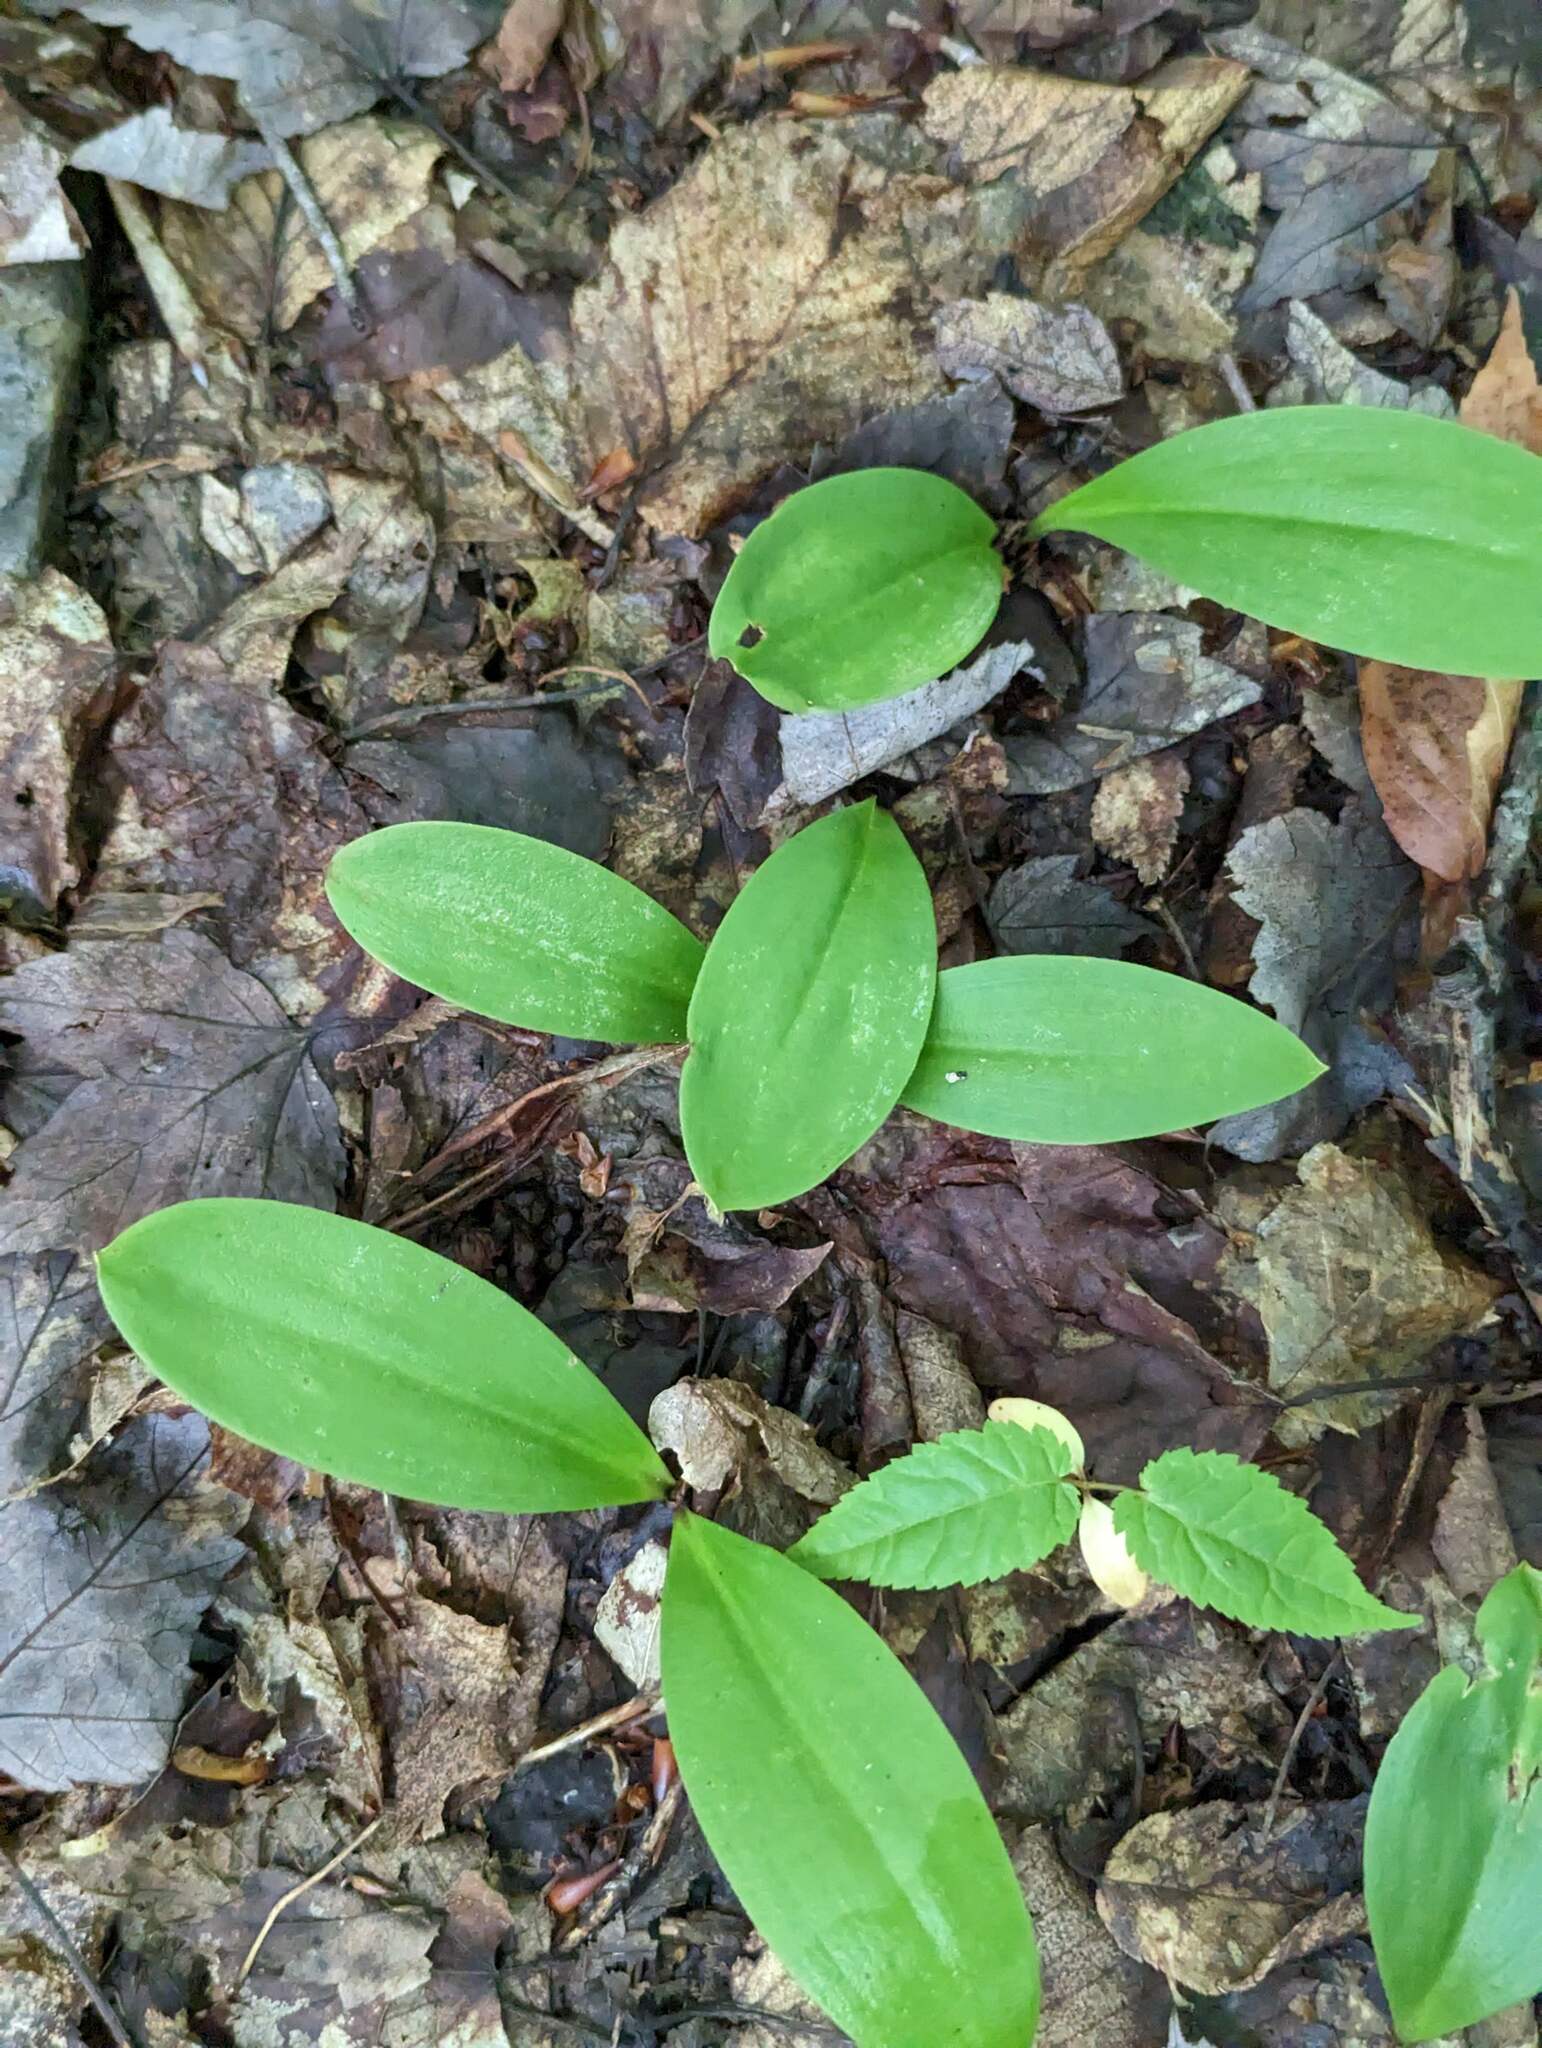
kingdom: Plantae
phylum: Tracheophyta
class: Liliopsida
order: Liliales
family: Liliaceae
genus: Clintonia
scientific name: Clintonia borealis
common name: Yellow clintonia
